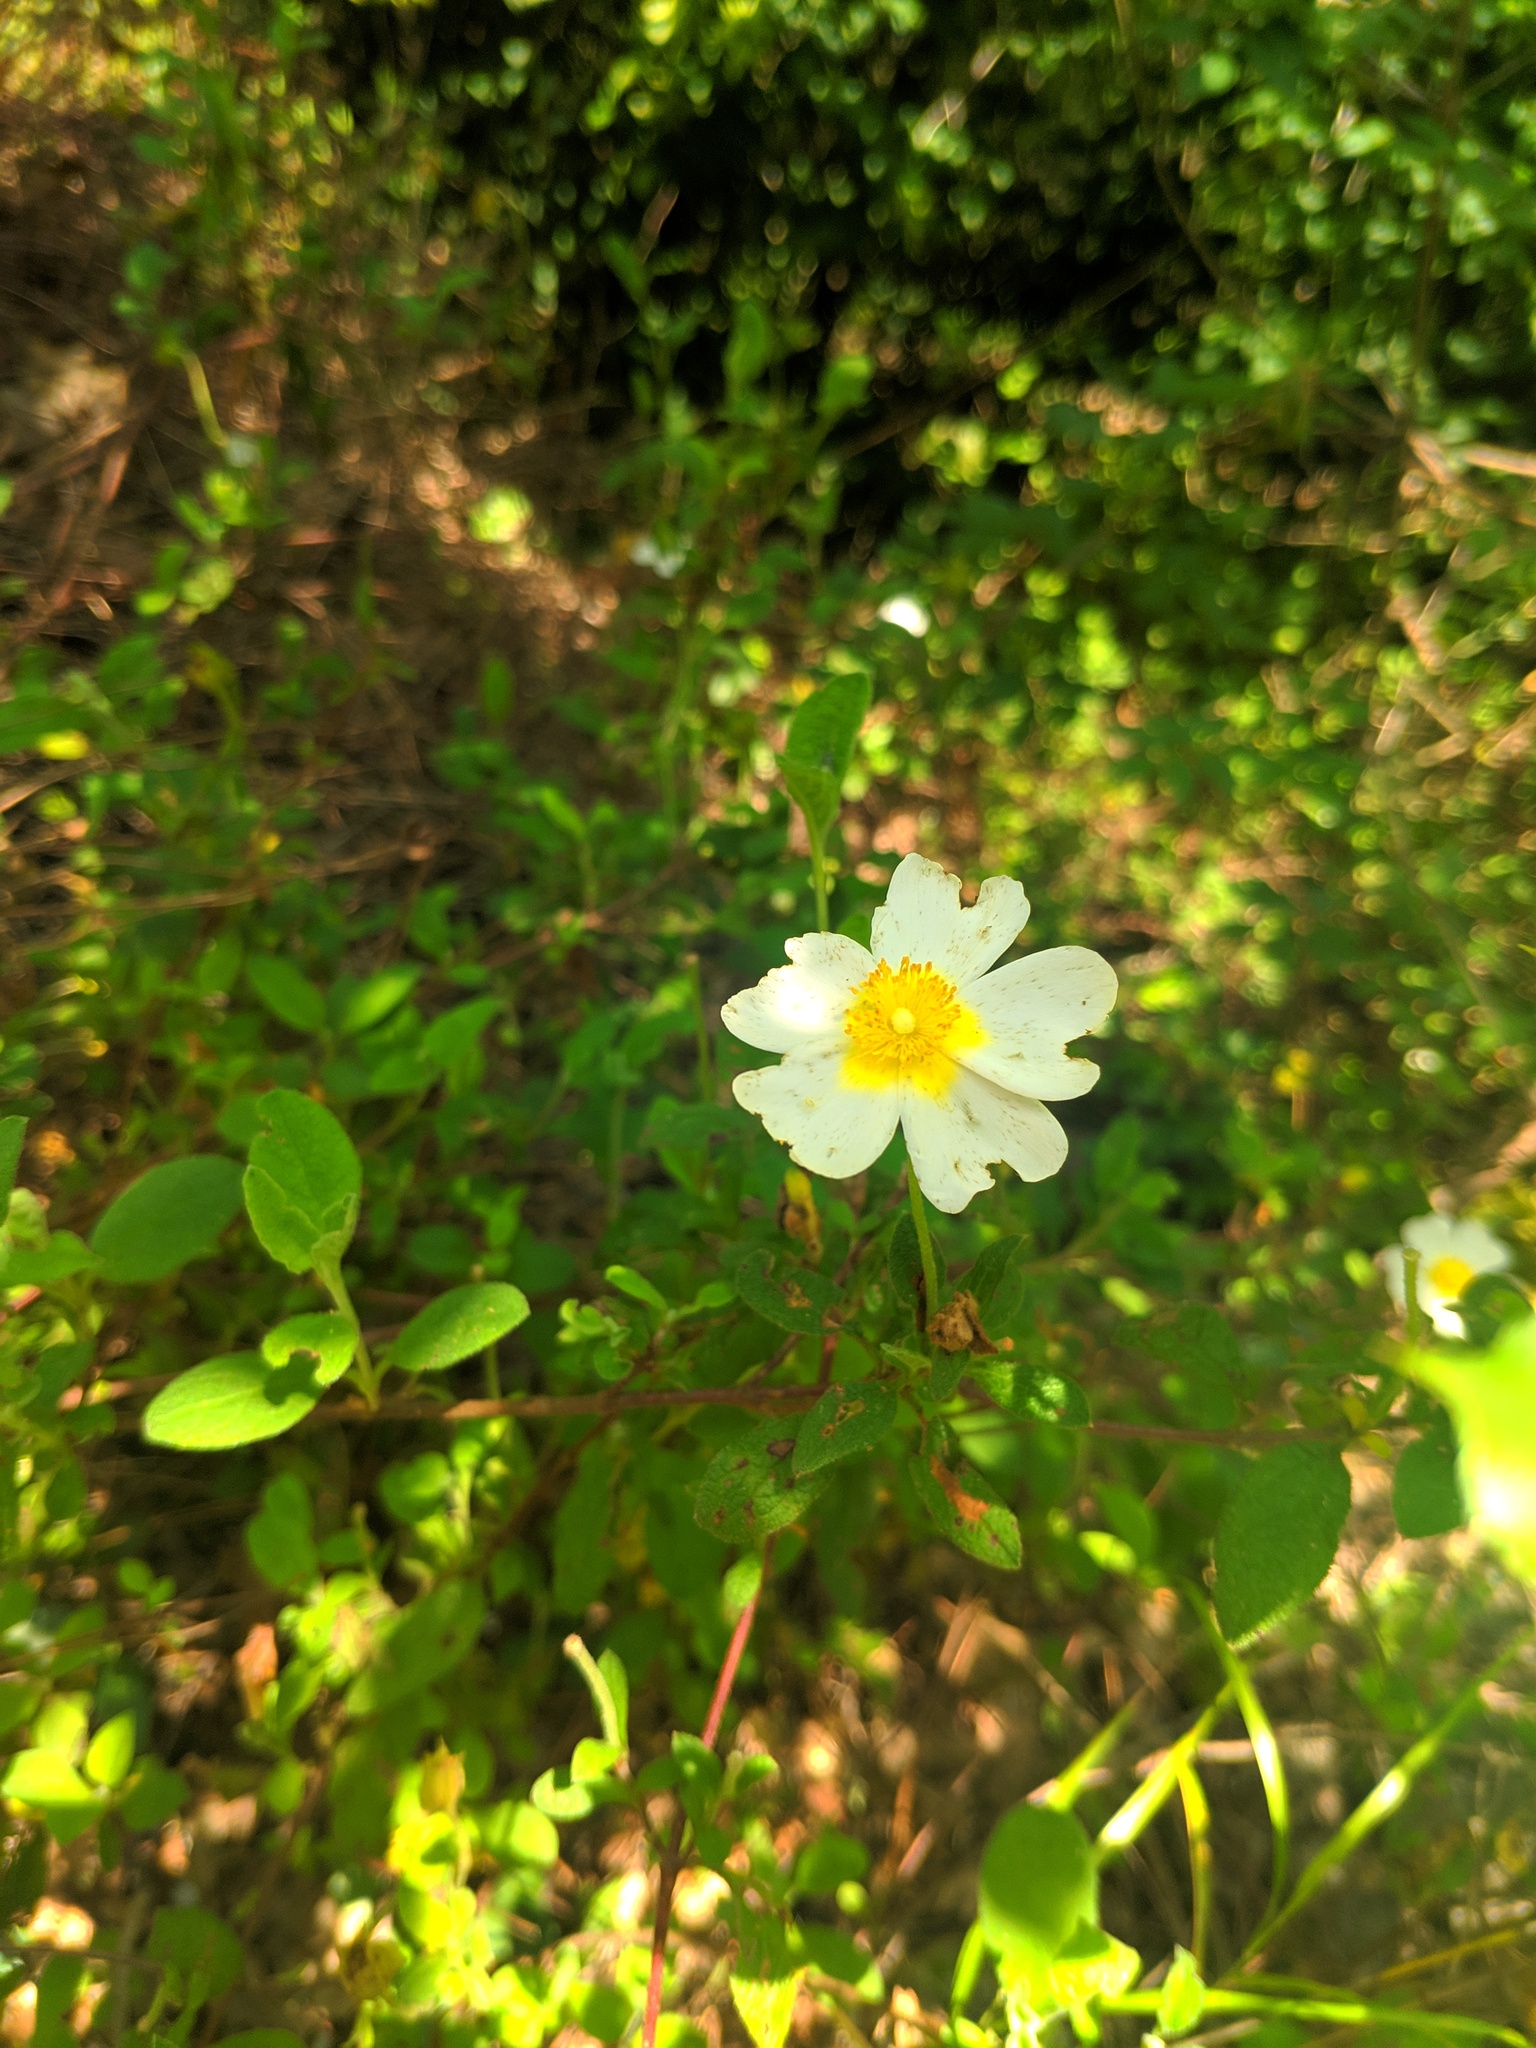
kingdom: Plantae
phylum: Tracheophyta
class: Magnoliopsida
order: Malvales
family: Cistaceae
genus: Cistus
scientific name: Cistus salviifolius
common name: Salvia cistus
